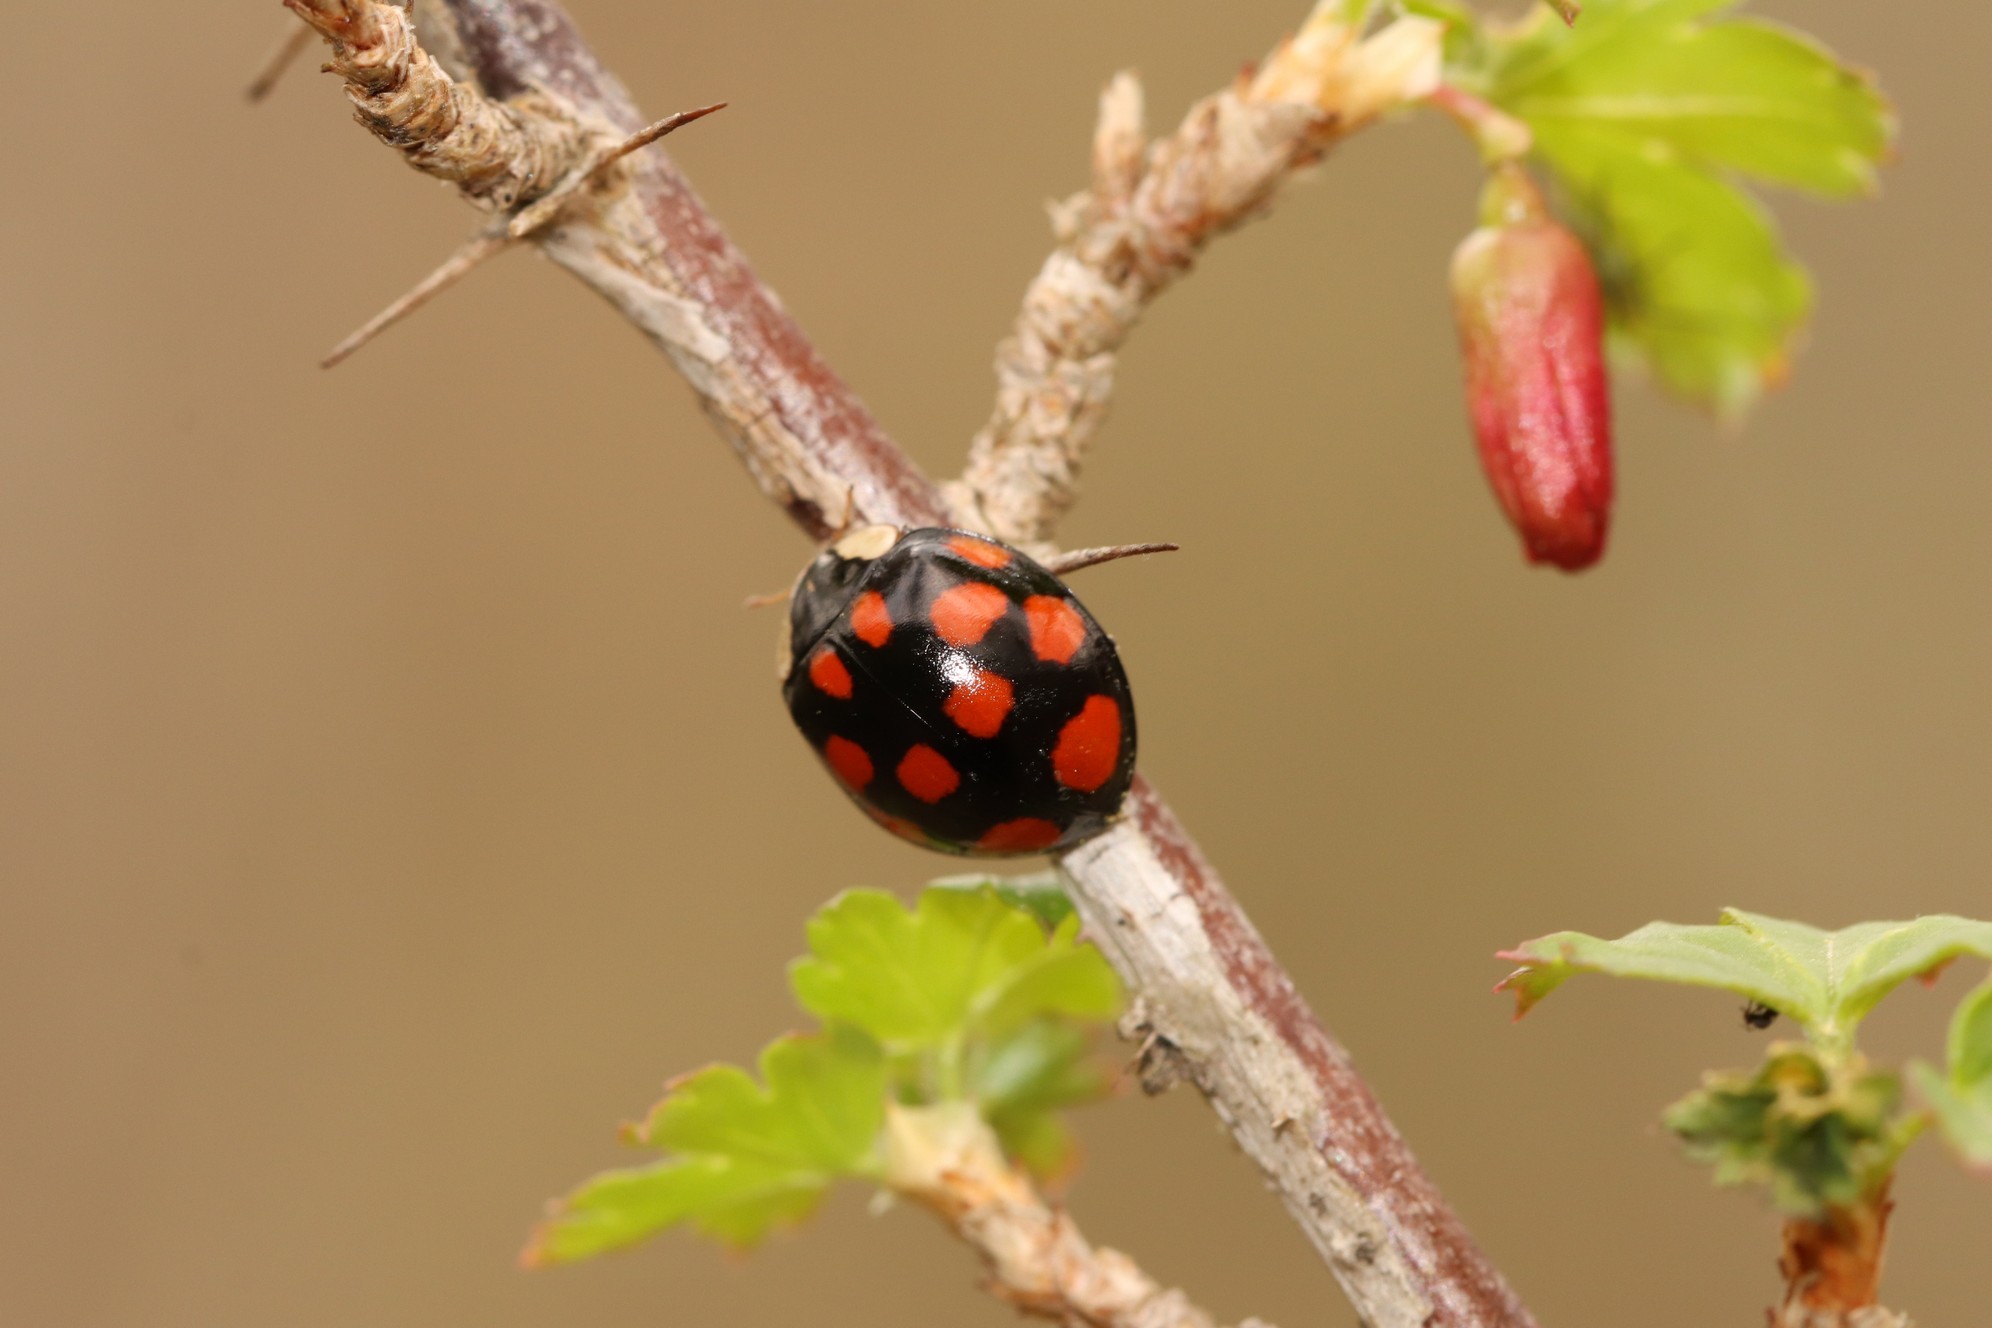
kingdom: Animalia
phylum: Arthropoda
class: Insecta
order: Coleoptera
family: Coccinellidae
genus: Harmonia
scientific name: Harmonia axyridis
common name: Harlequin ladybird
